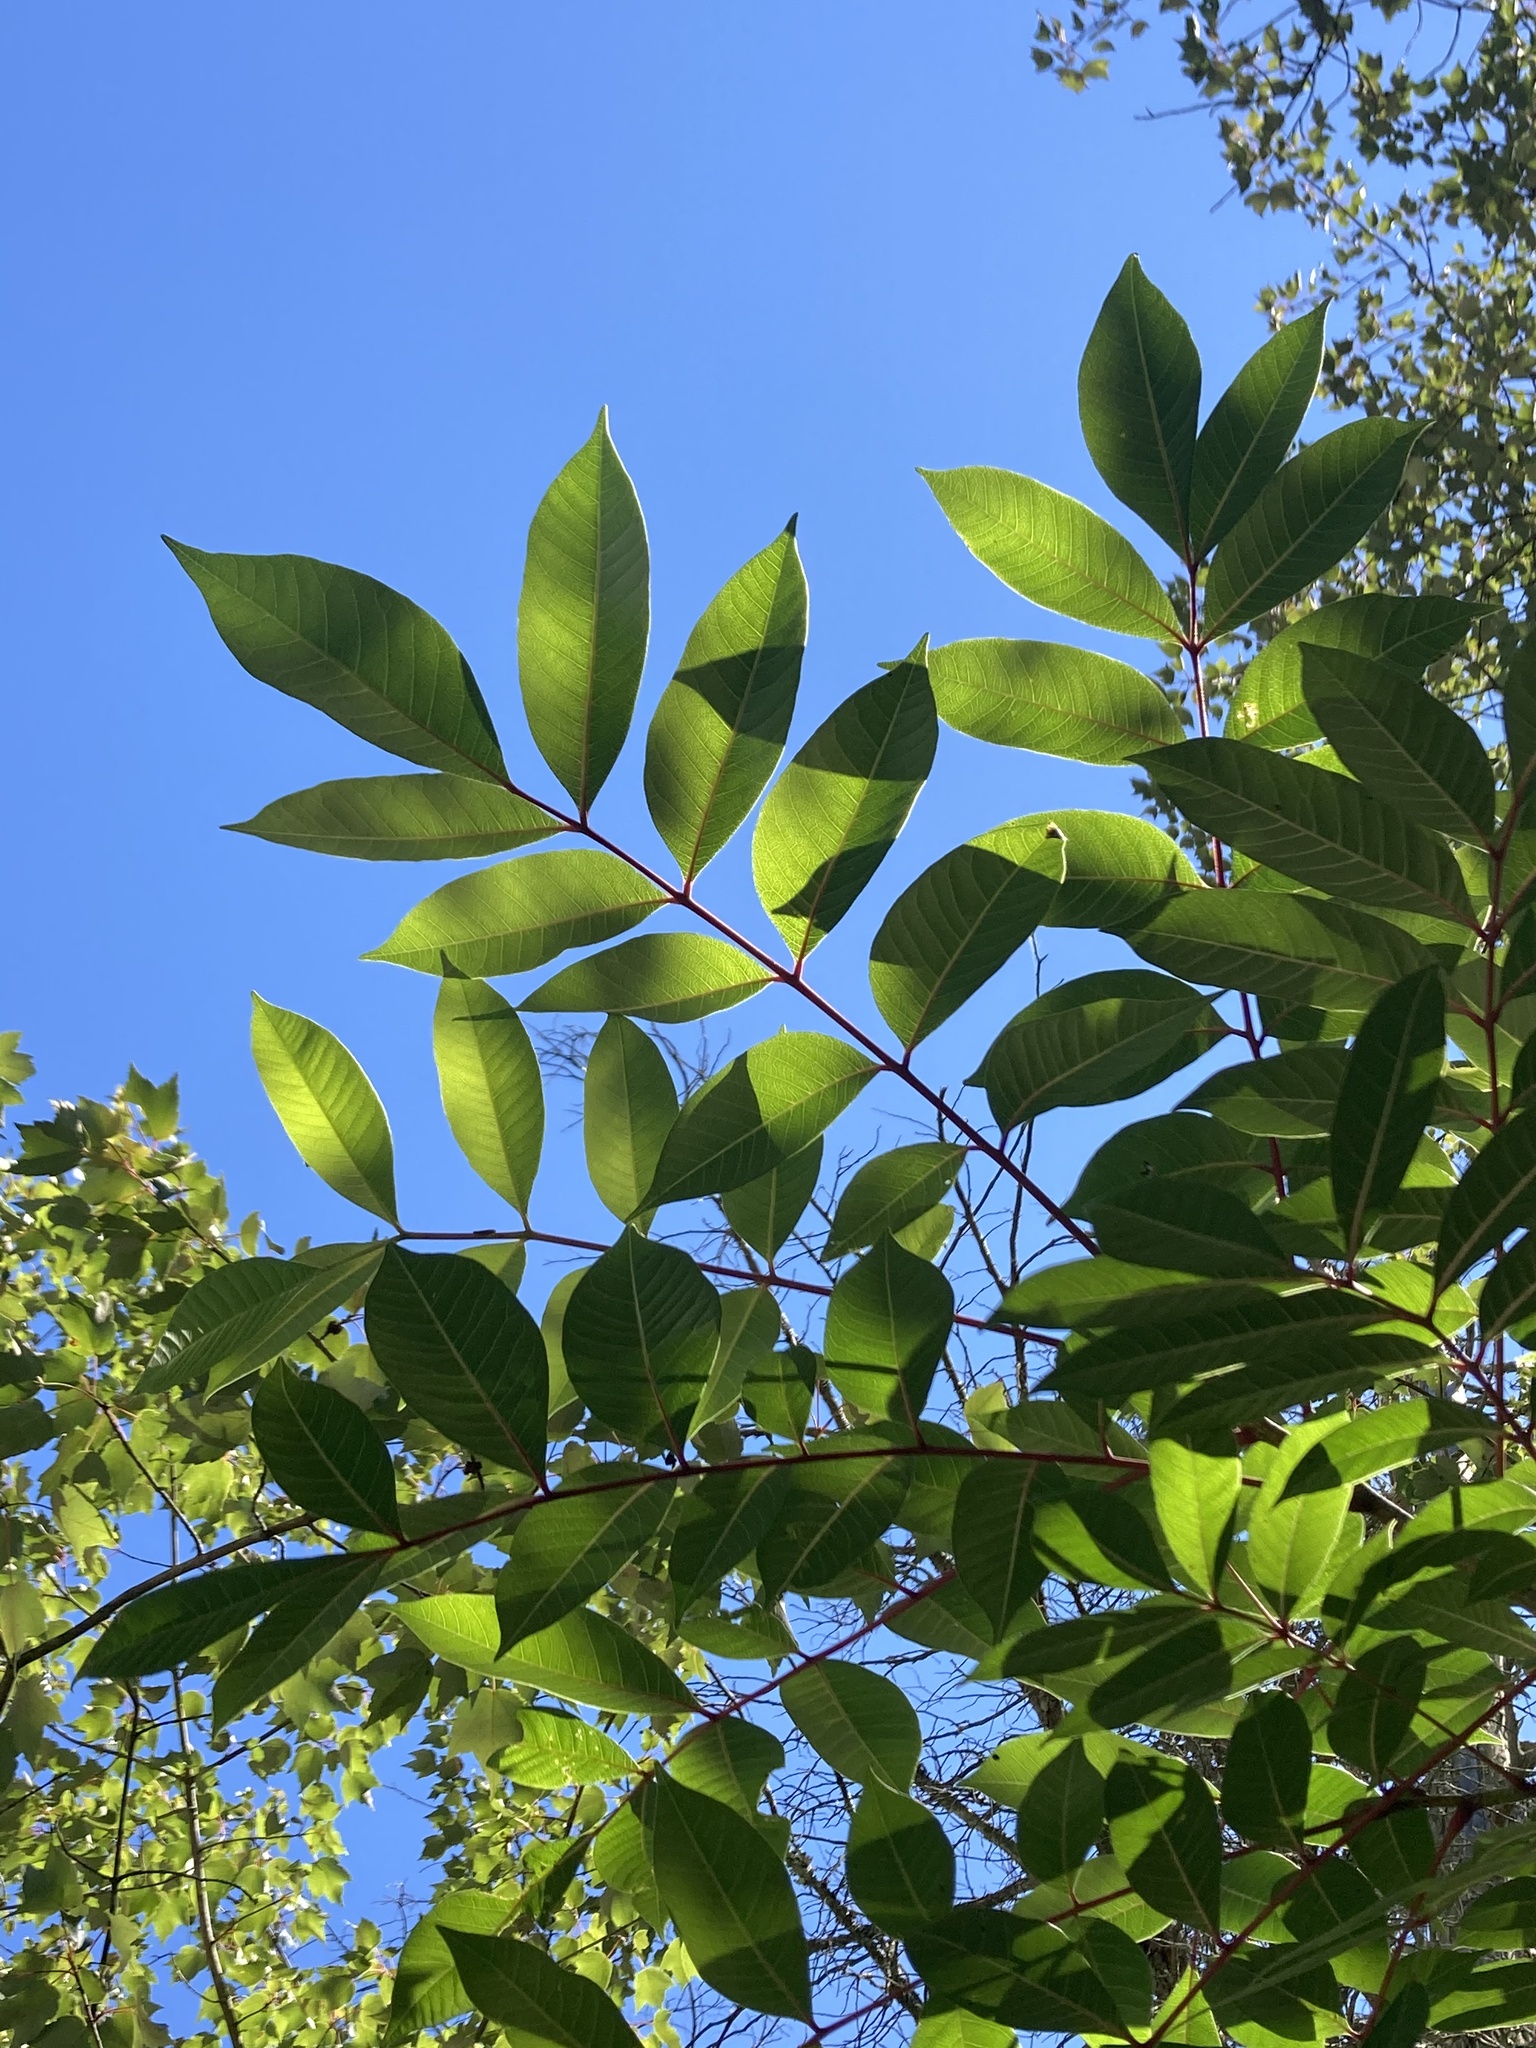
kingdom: Plantae
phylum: Tracheophyta
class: Magnoliopsida
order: Sapindales
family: Anacardiaceae
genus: Toxicodendron
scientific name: Toxicodendron vernix
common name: Poison sumac
